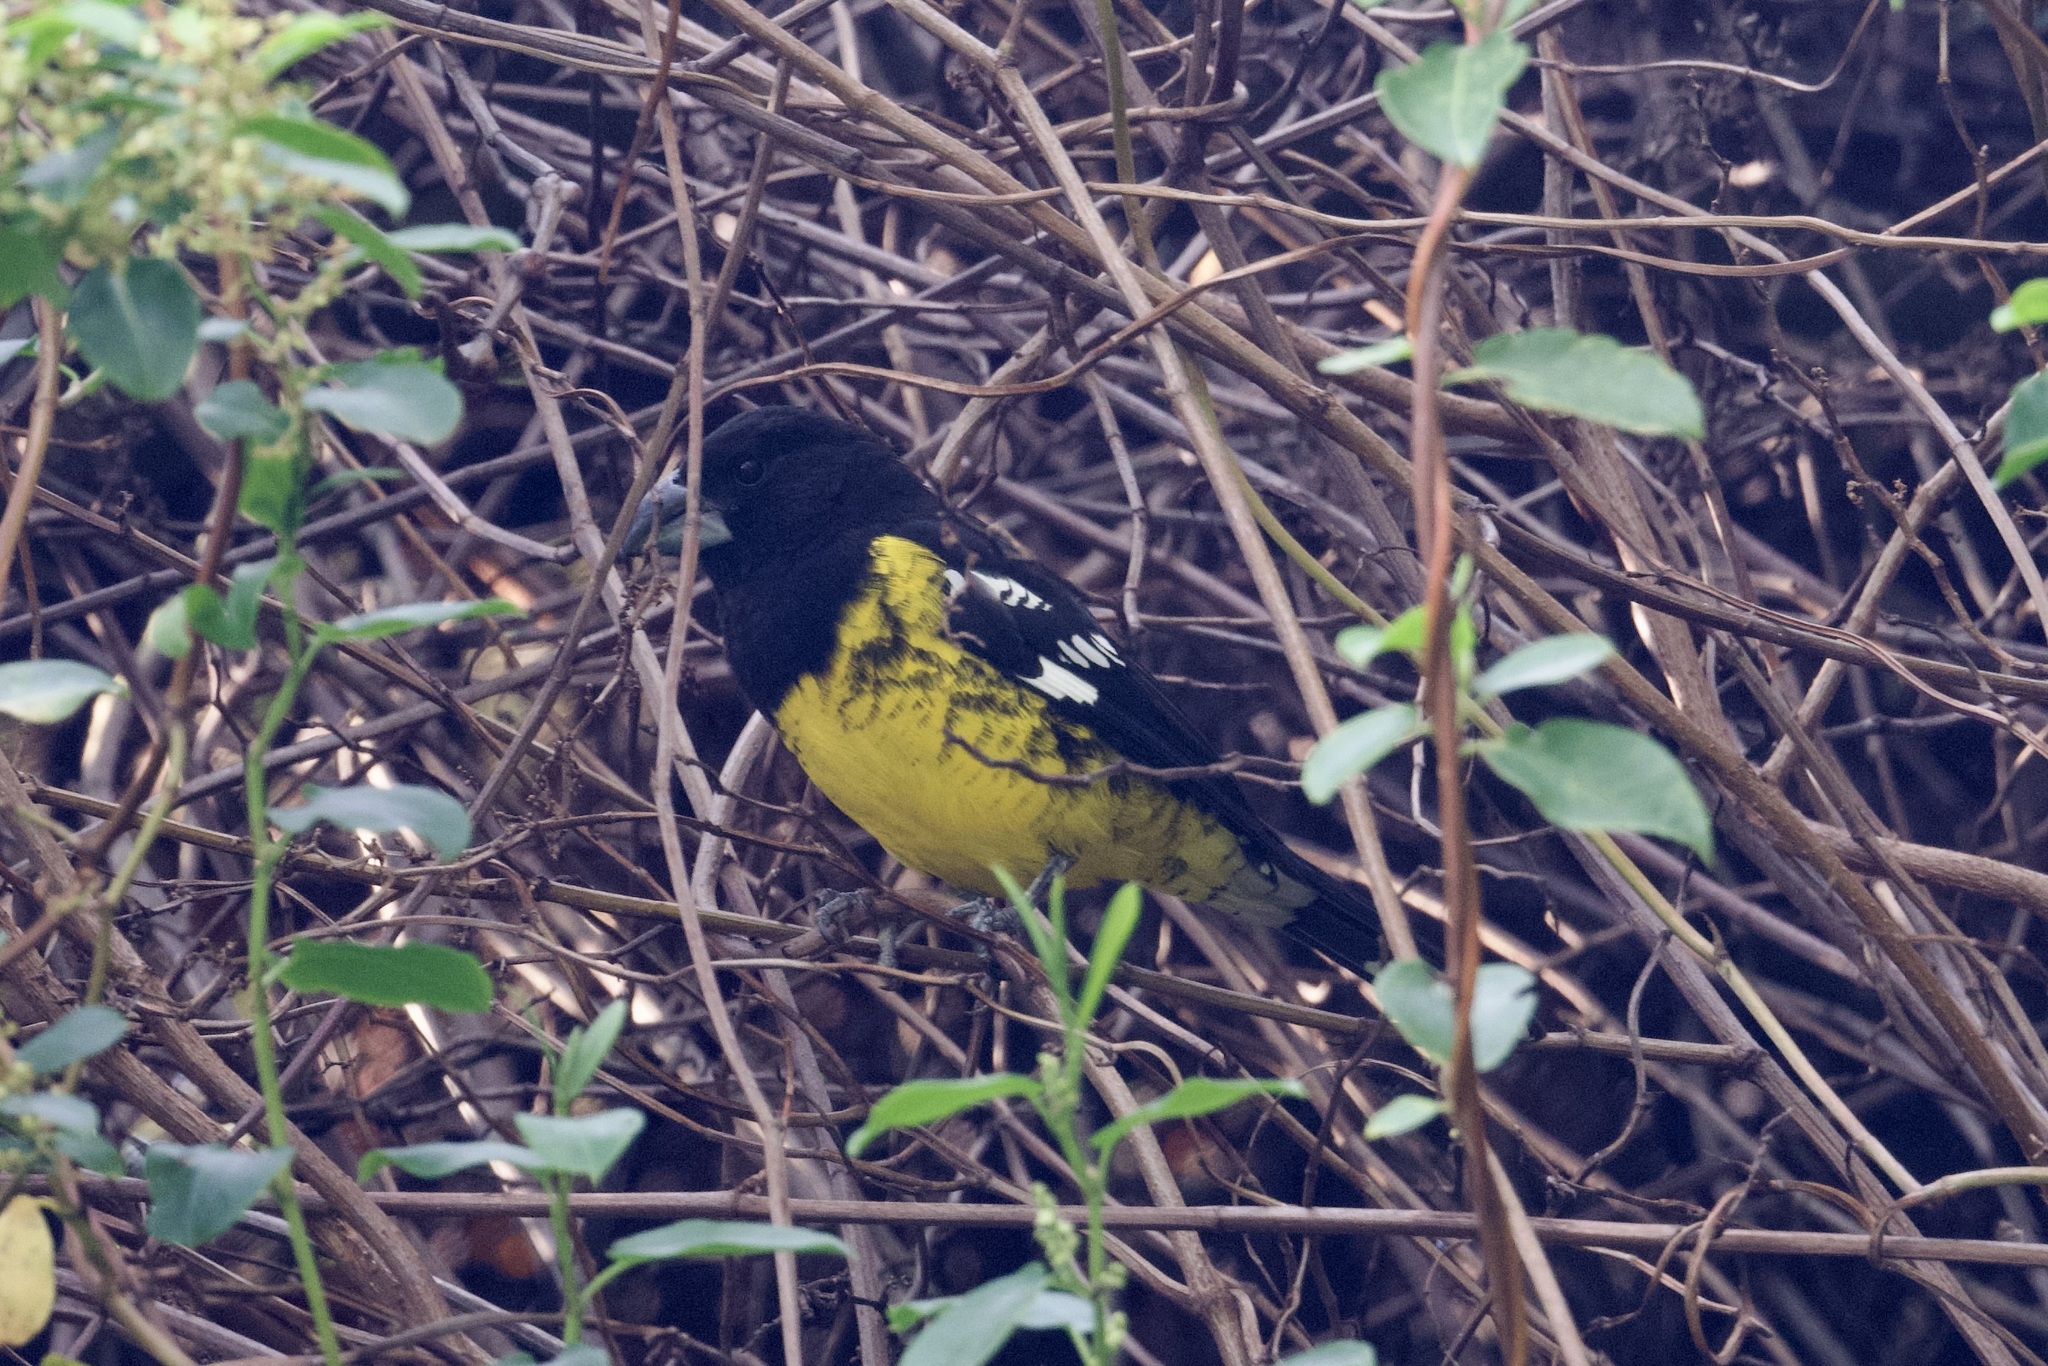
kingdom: Animalia
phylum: Chordata
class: Aves
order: Passeriformes
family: Cardinalidae
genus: Pheucticus
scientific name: Pheucticus aureoventris
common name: Black-backed grosbeak
